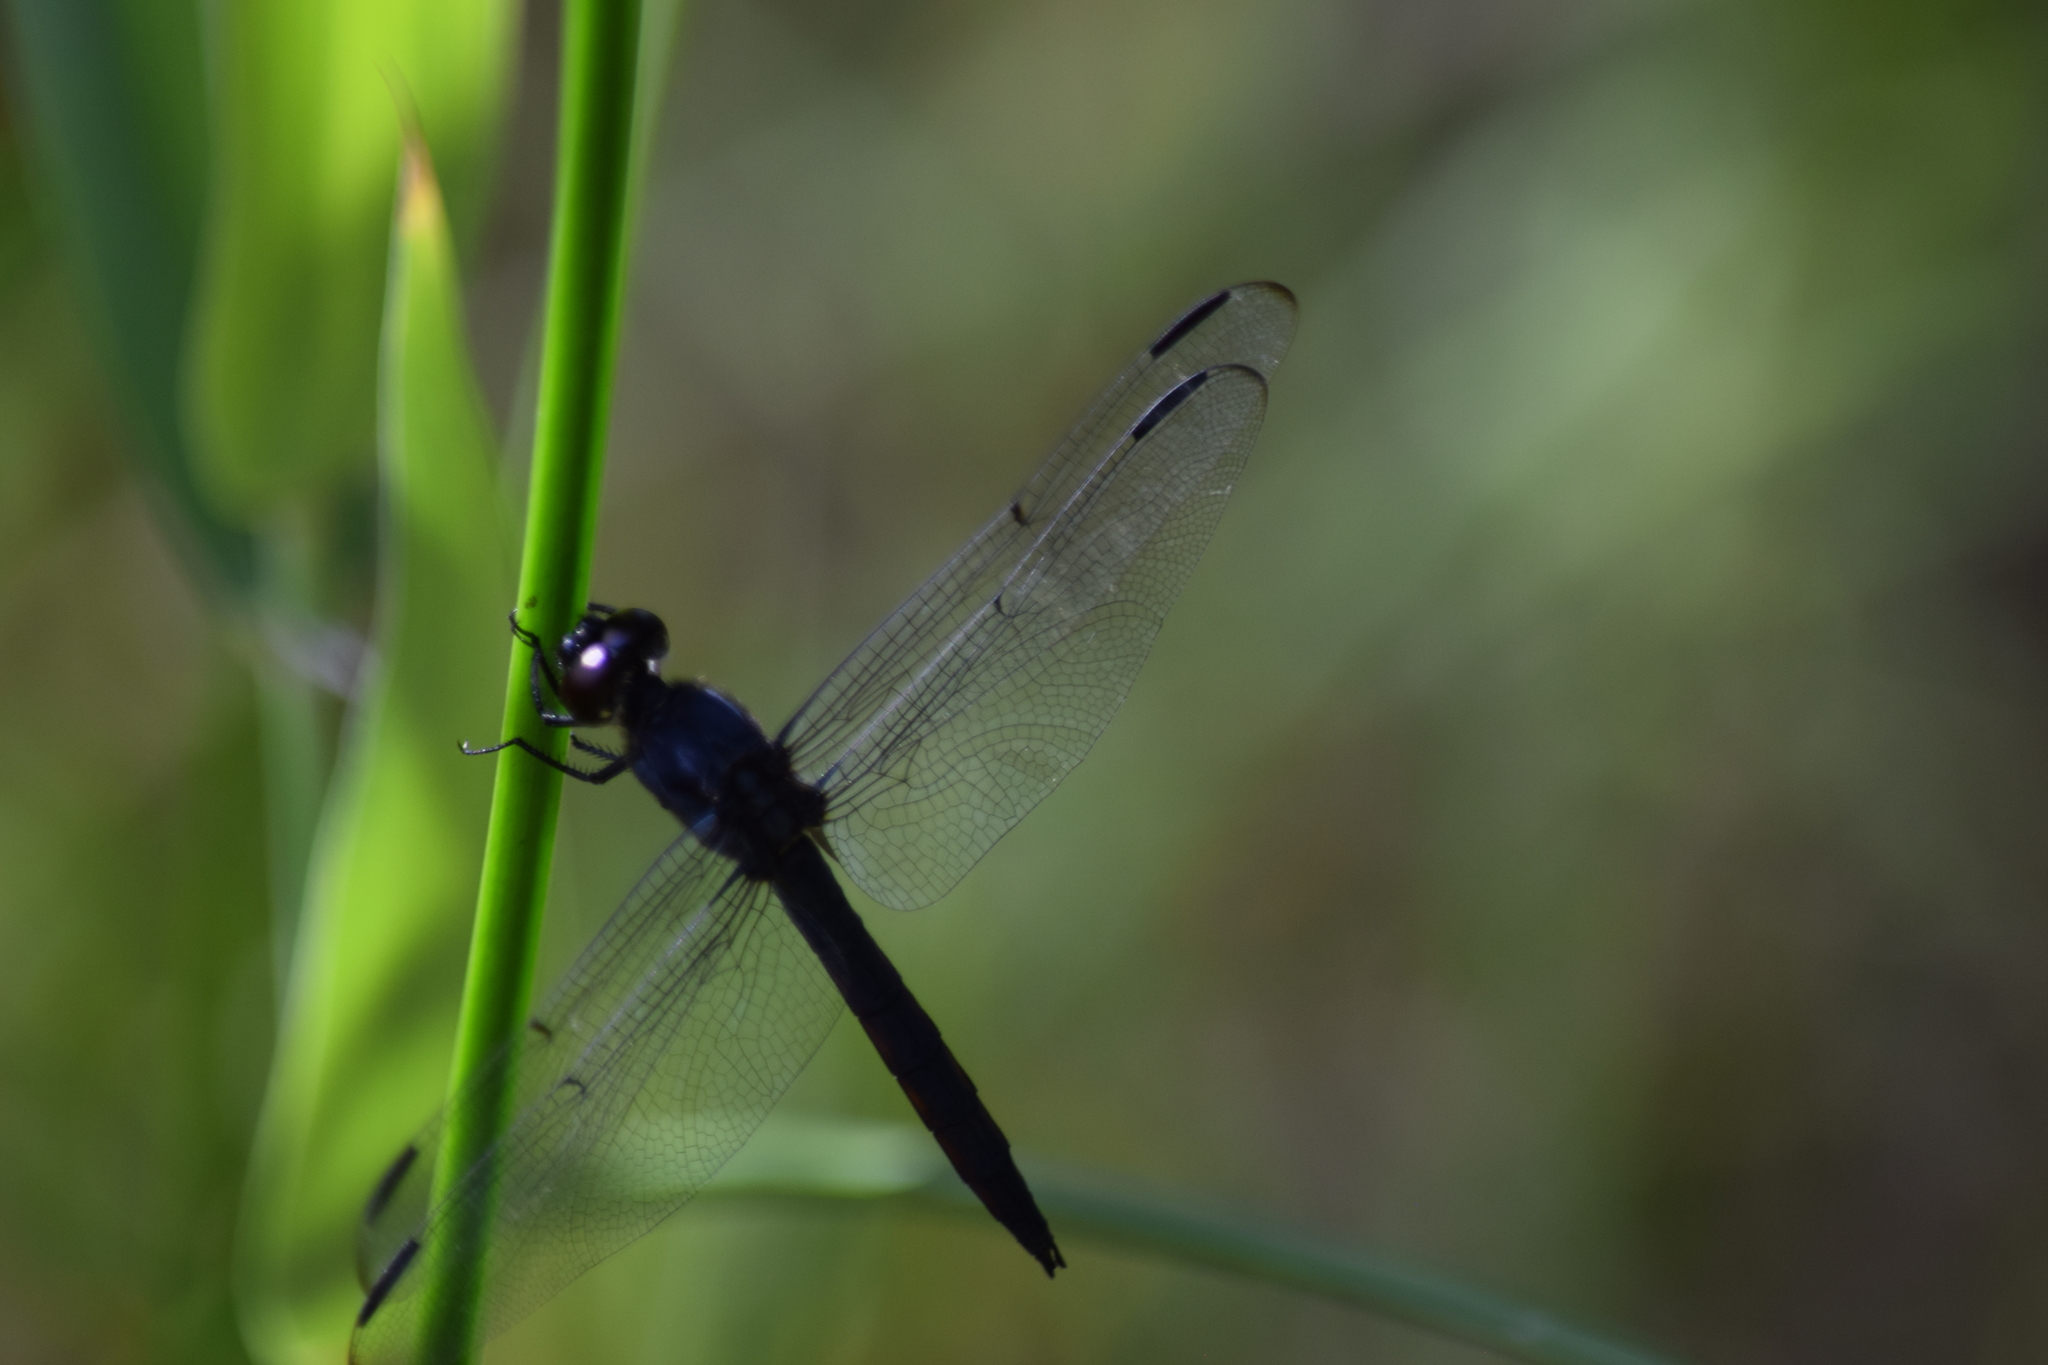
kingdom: Animalia
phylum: Arthropoda
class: Insecta
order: Odonata
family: Libellulidae
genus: Libellula
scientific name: Libellula incesta
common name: Slaty skimmer
